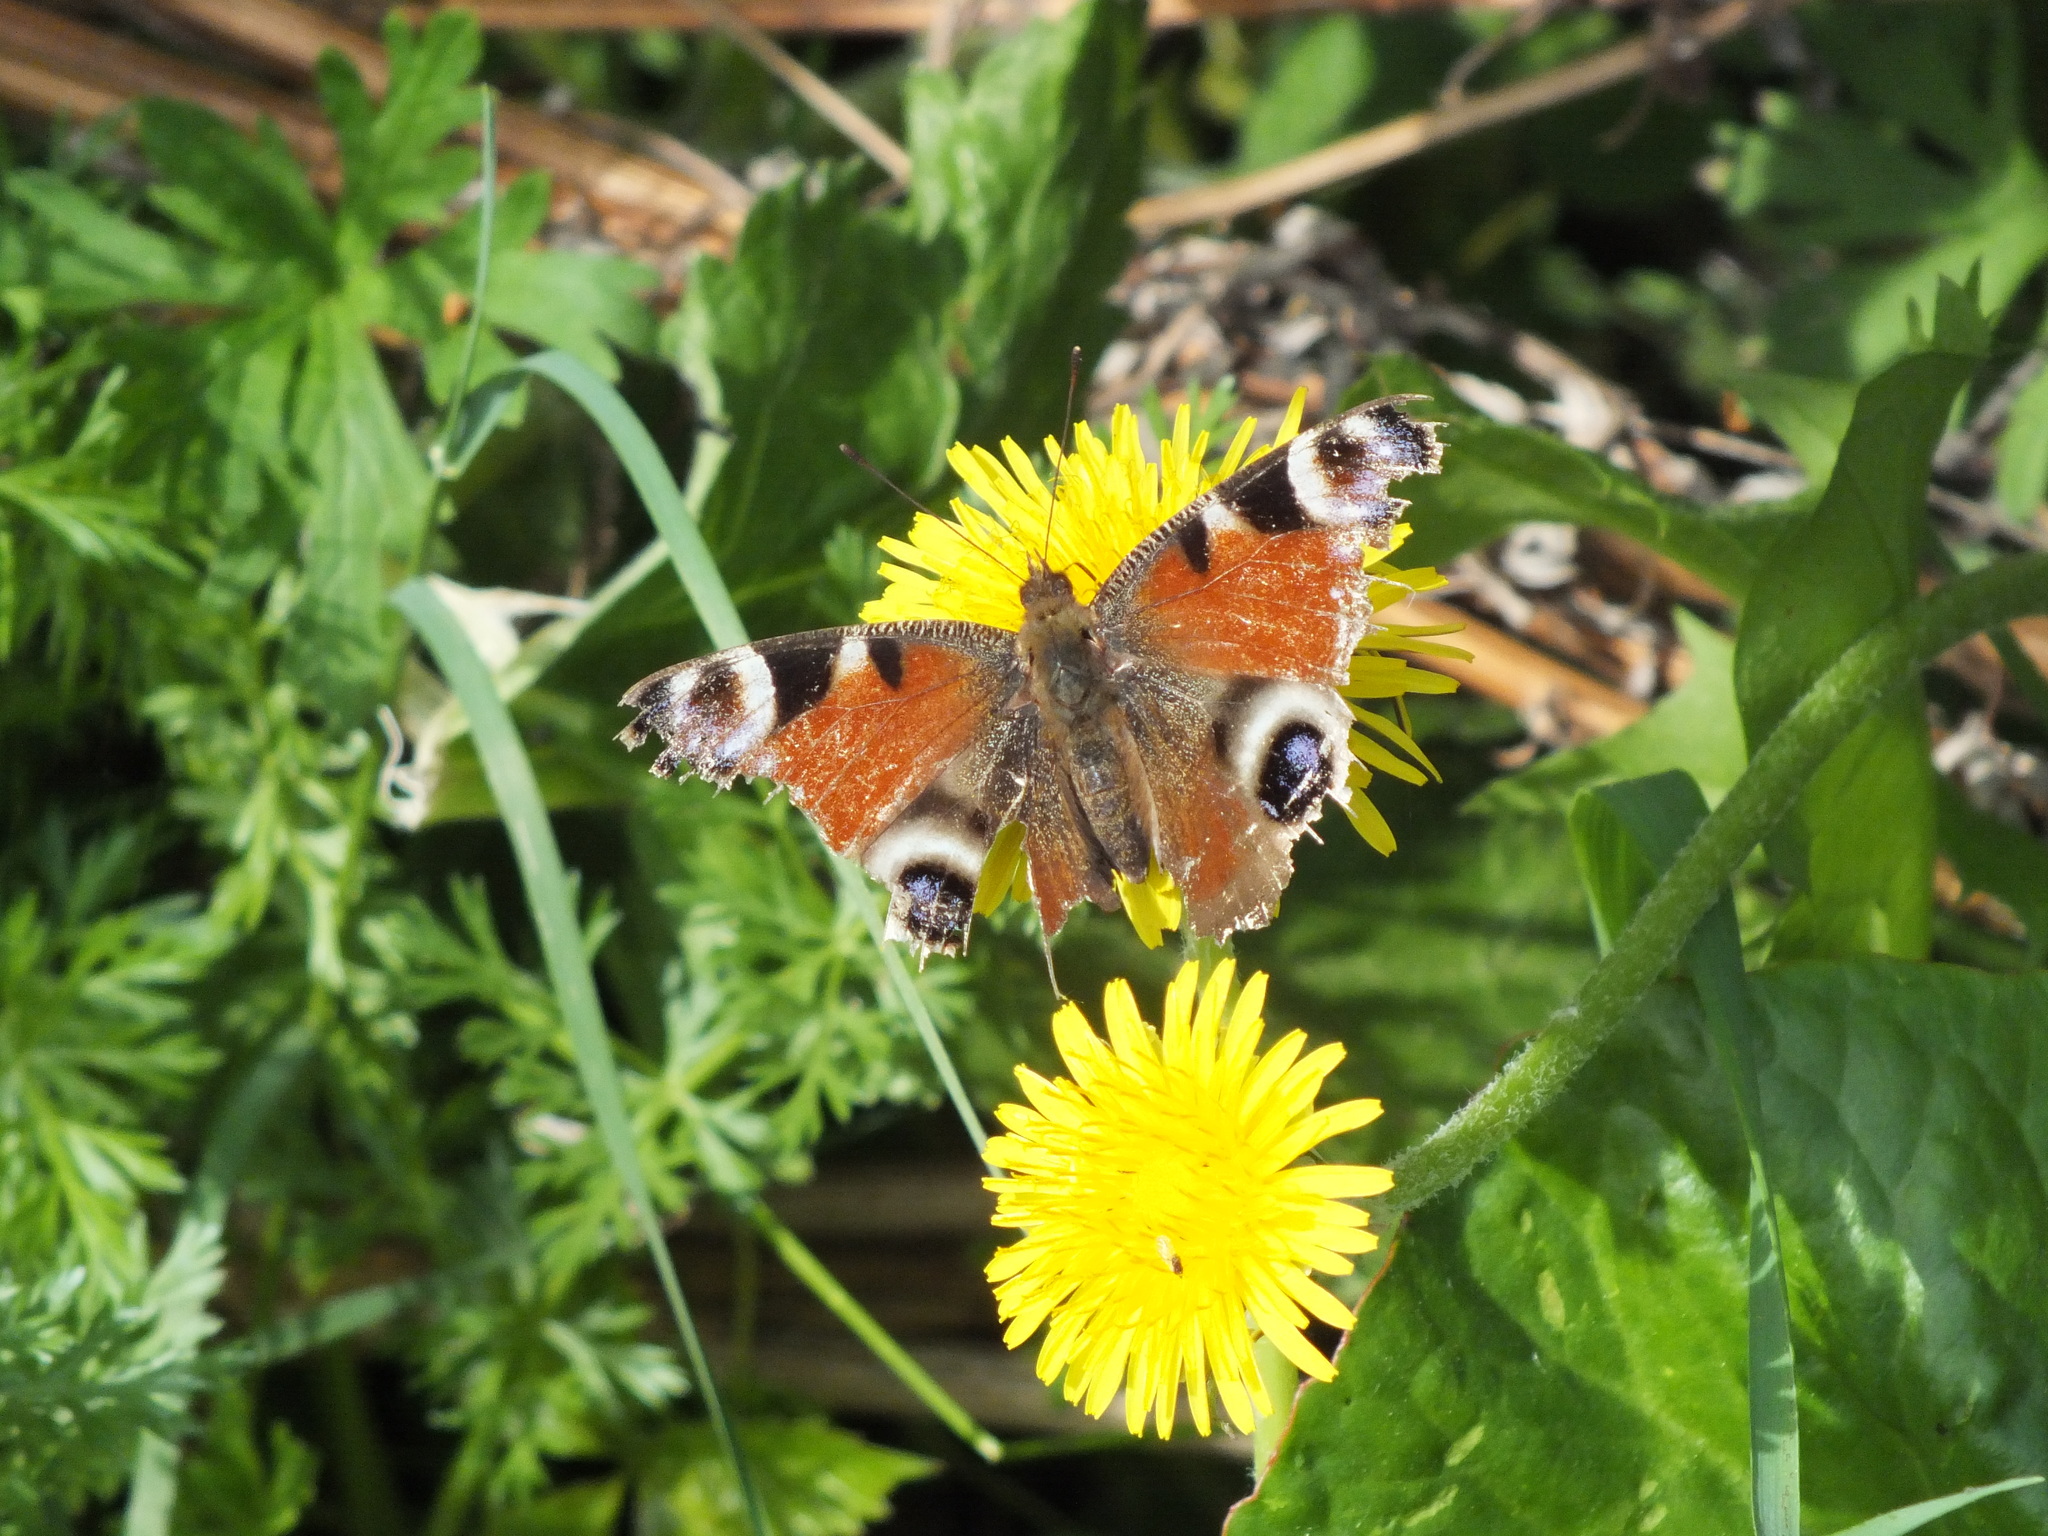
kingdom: Animalia
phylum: Arthropoda
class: Insecta
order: Lepidoptera
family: Nymphalidae
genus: Aglais
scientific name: Aglais io
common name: Peacock
